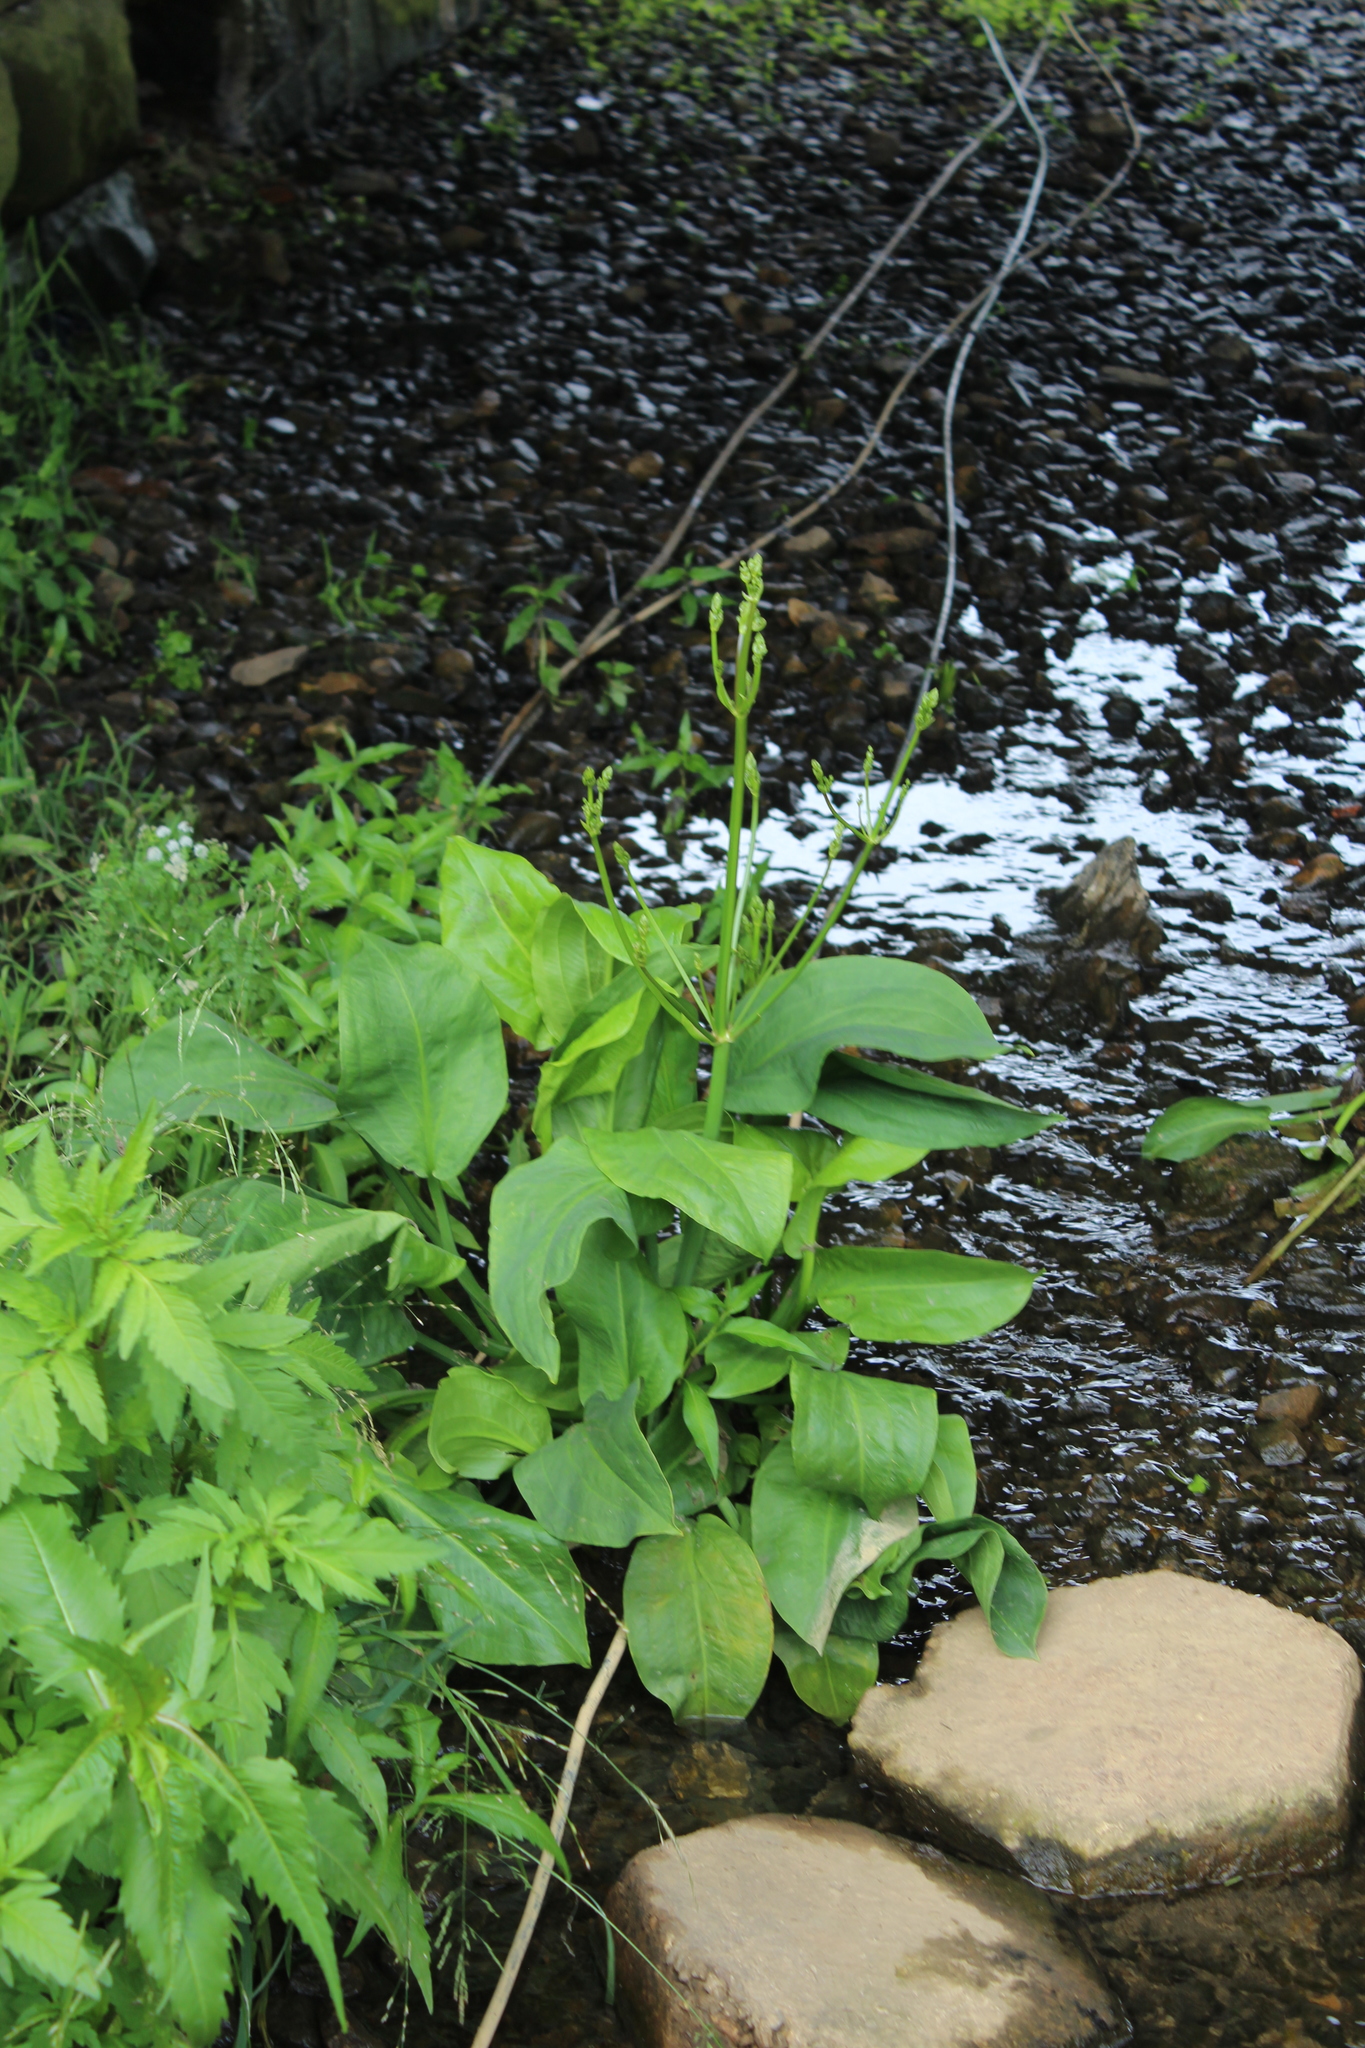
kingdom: Plantae
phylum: Tracheophyta
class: Liliopsida
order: Alismatales
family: Alismataceae
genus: Alisma
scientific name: Alisma plantago-aquatica
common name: Water-plantain
